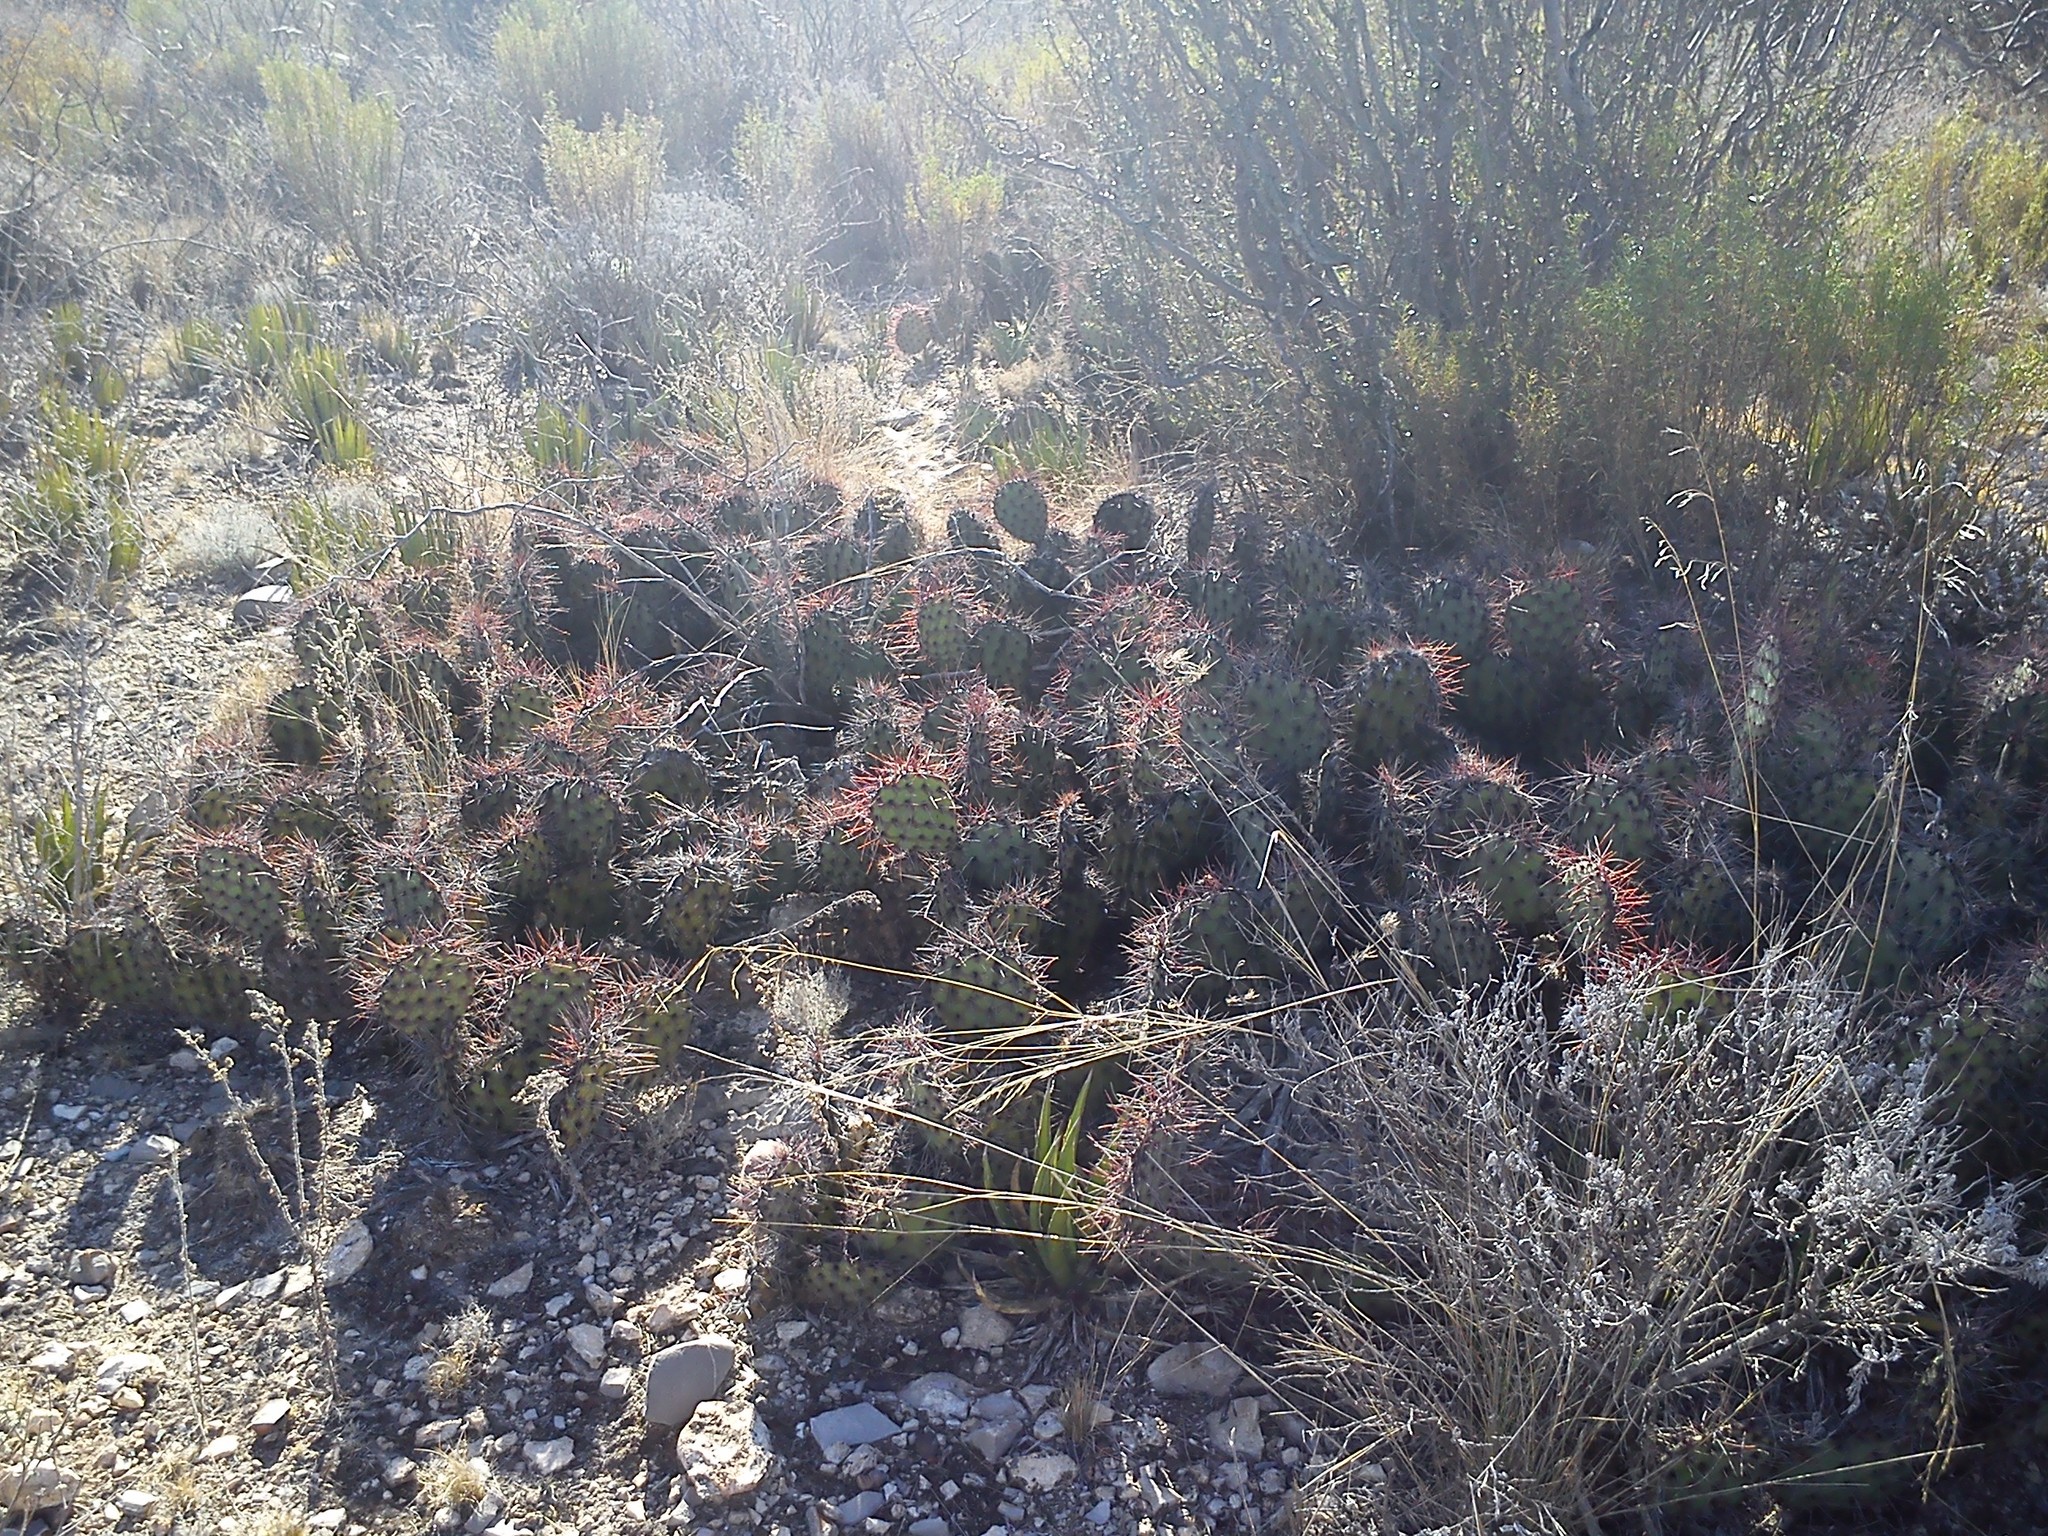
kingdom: Plantae
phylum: Tracheophyta
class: Magnoliopsida
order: Caryophyllales
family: Cactaceae
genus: Opuntia
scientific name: Opuntia stenopetala
